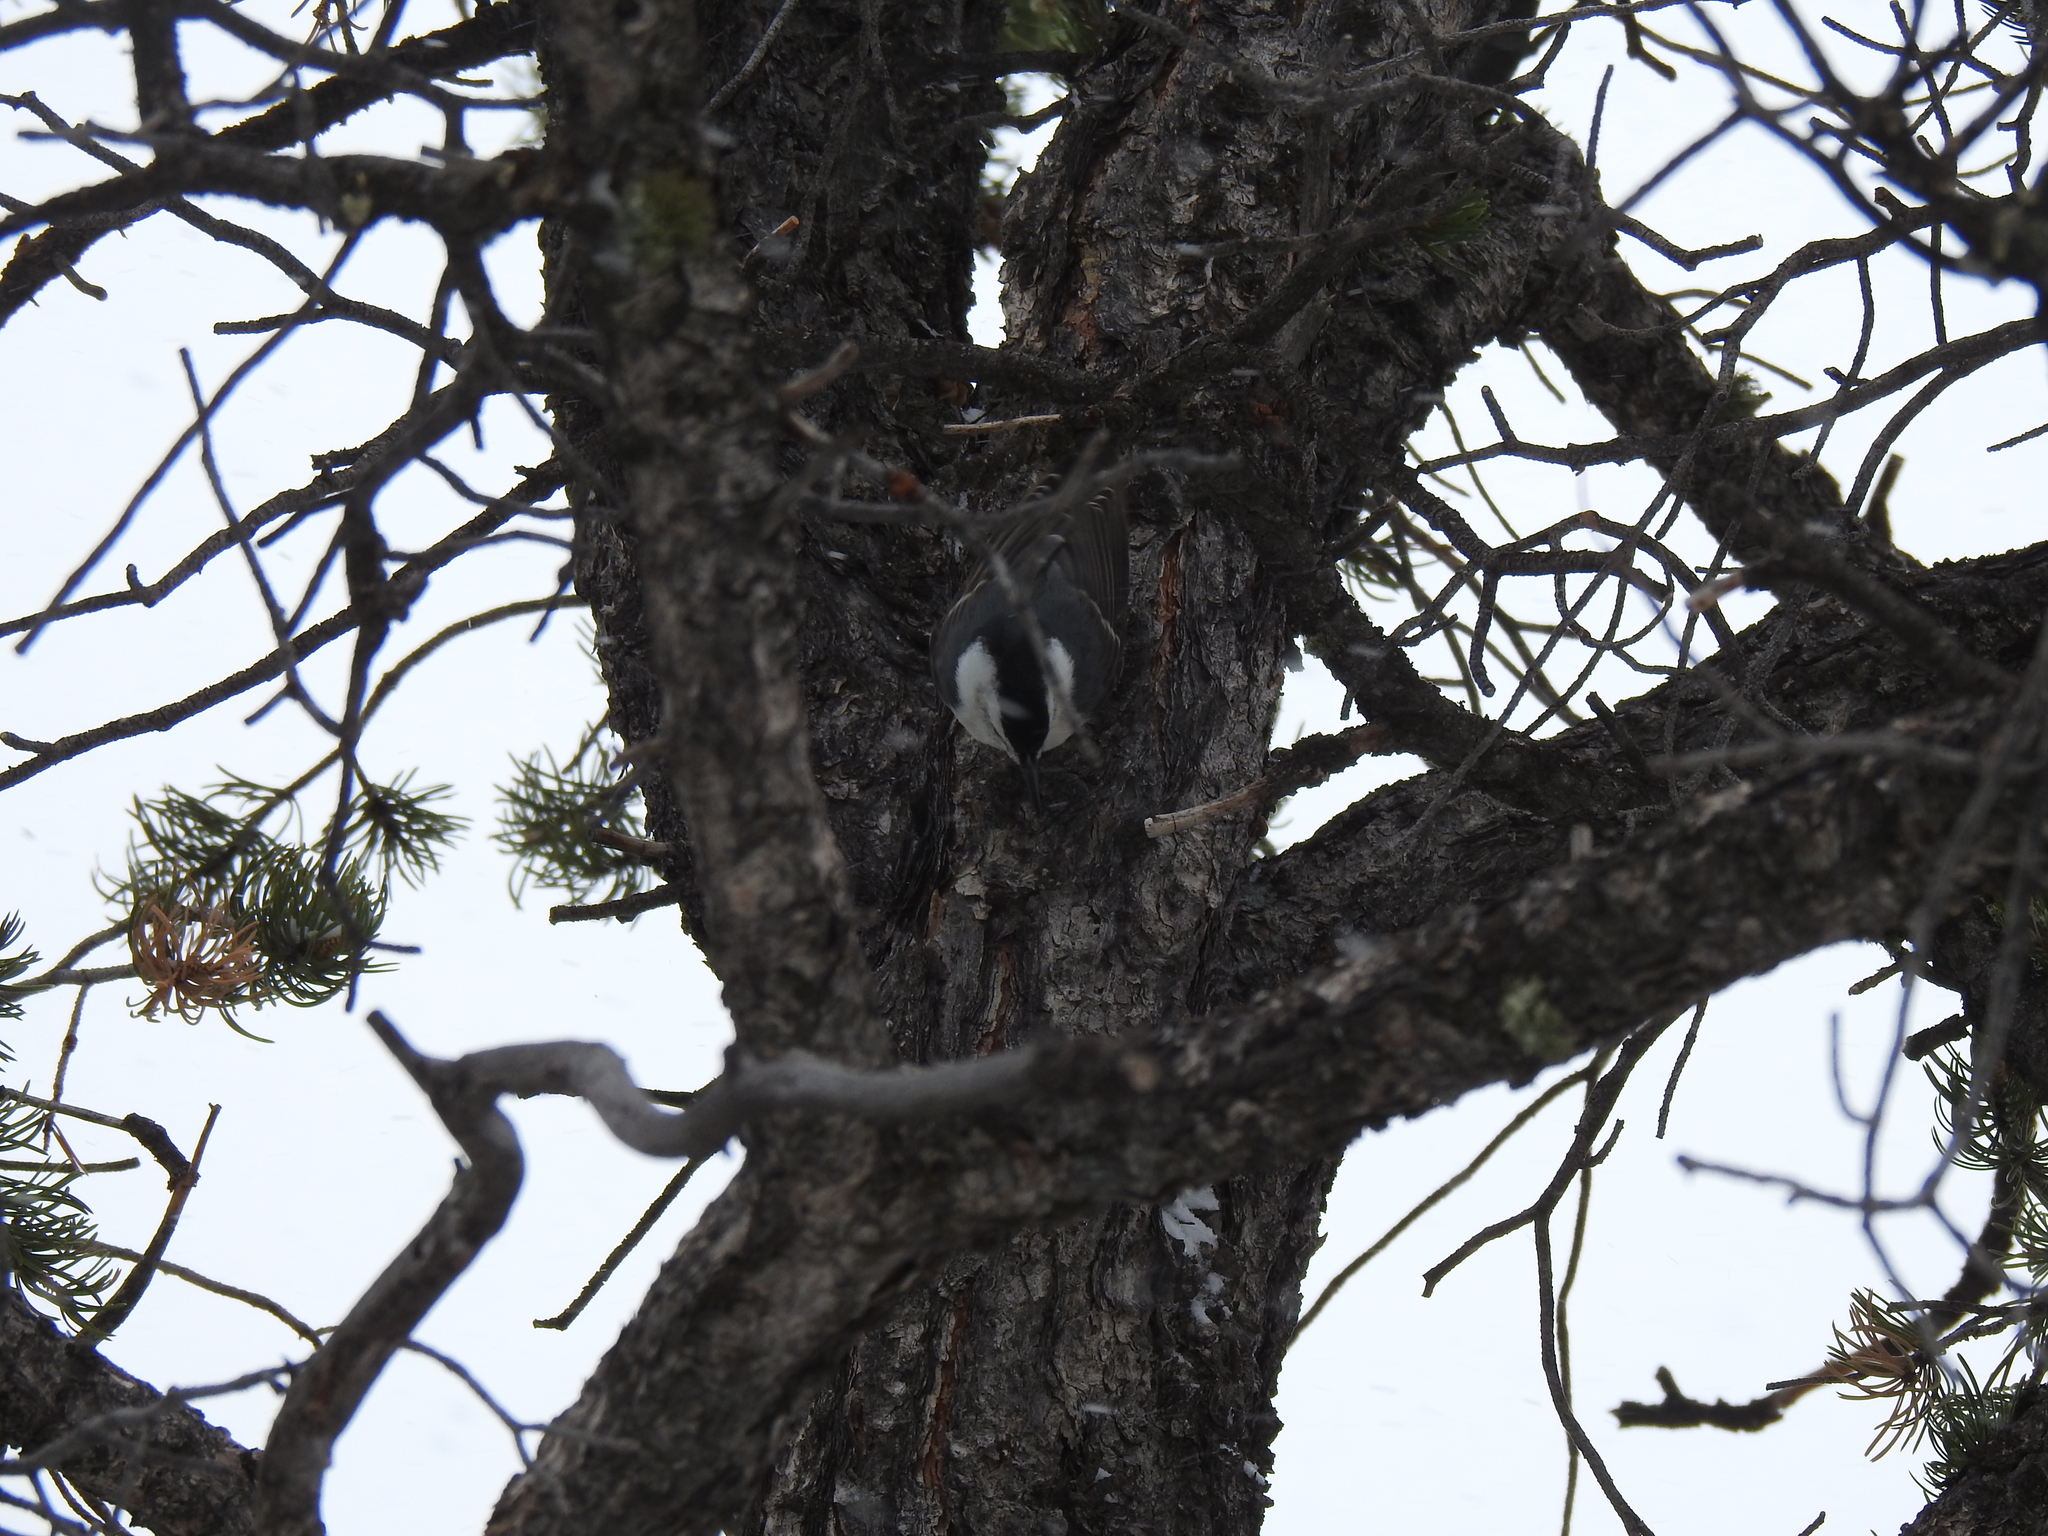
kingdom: Animalia
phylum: Chordata
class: Aves
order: Passeriformes
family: Sittidae
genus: Sitta
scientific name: Sitta carolinensis
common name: White-breasted nuthatch
